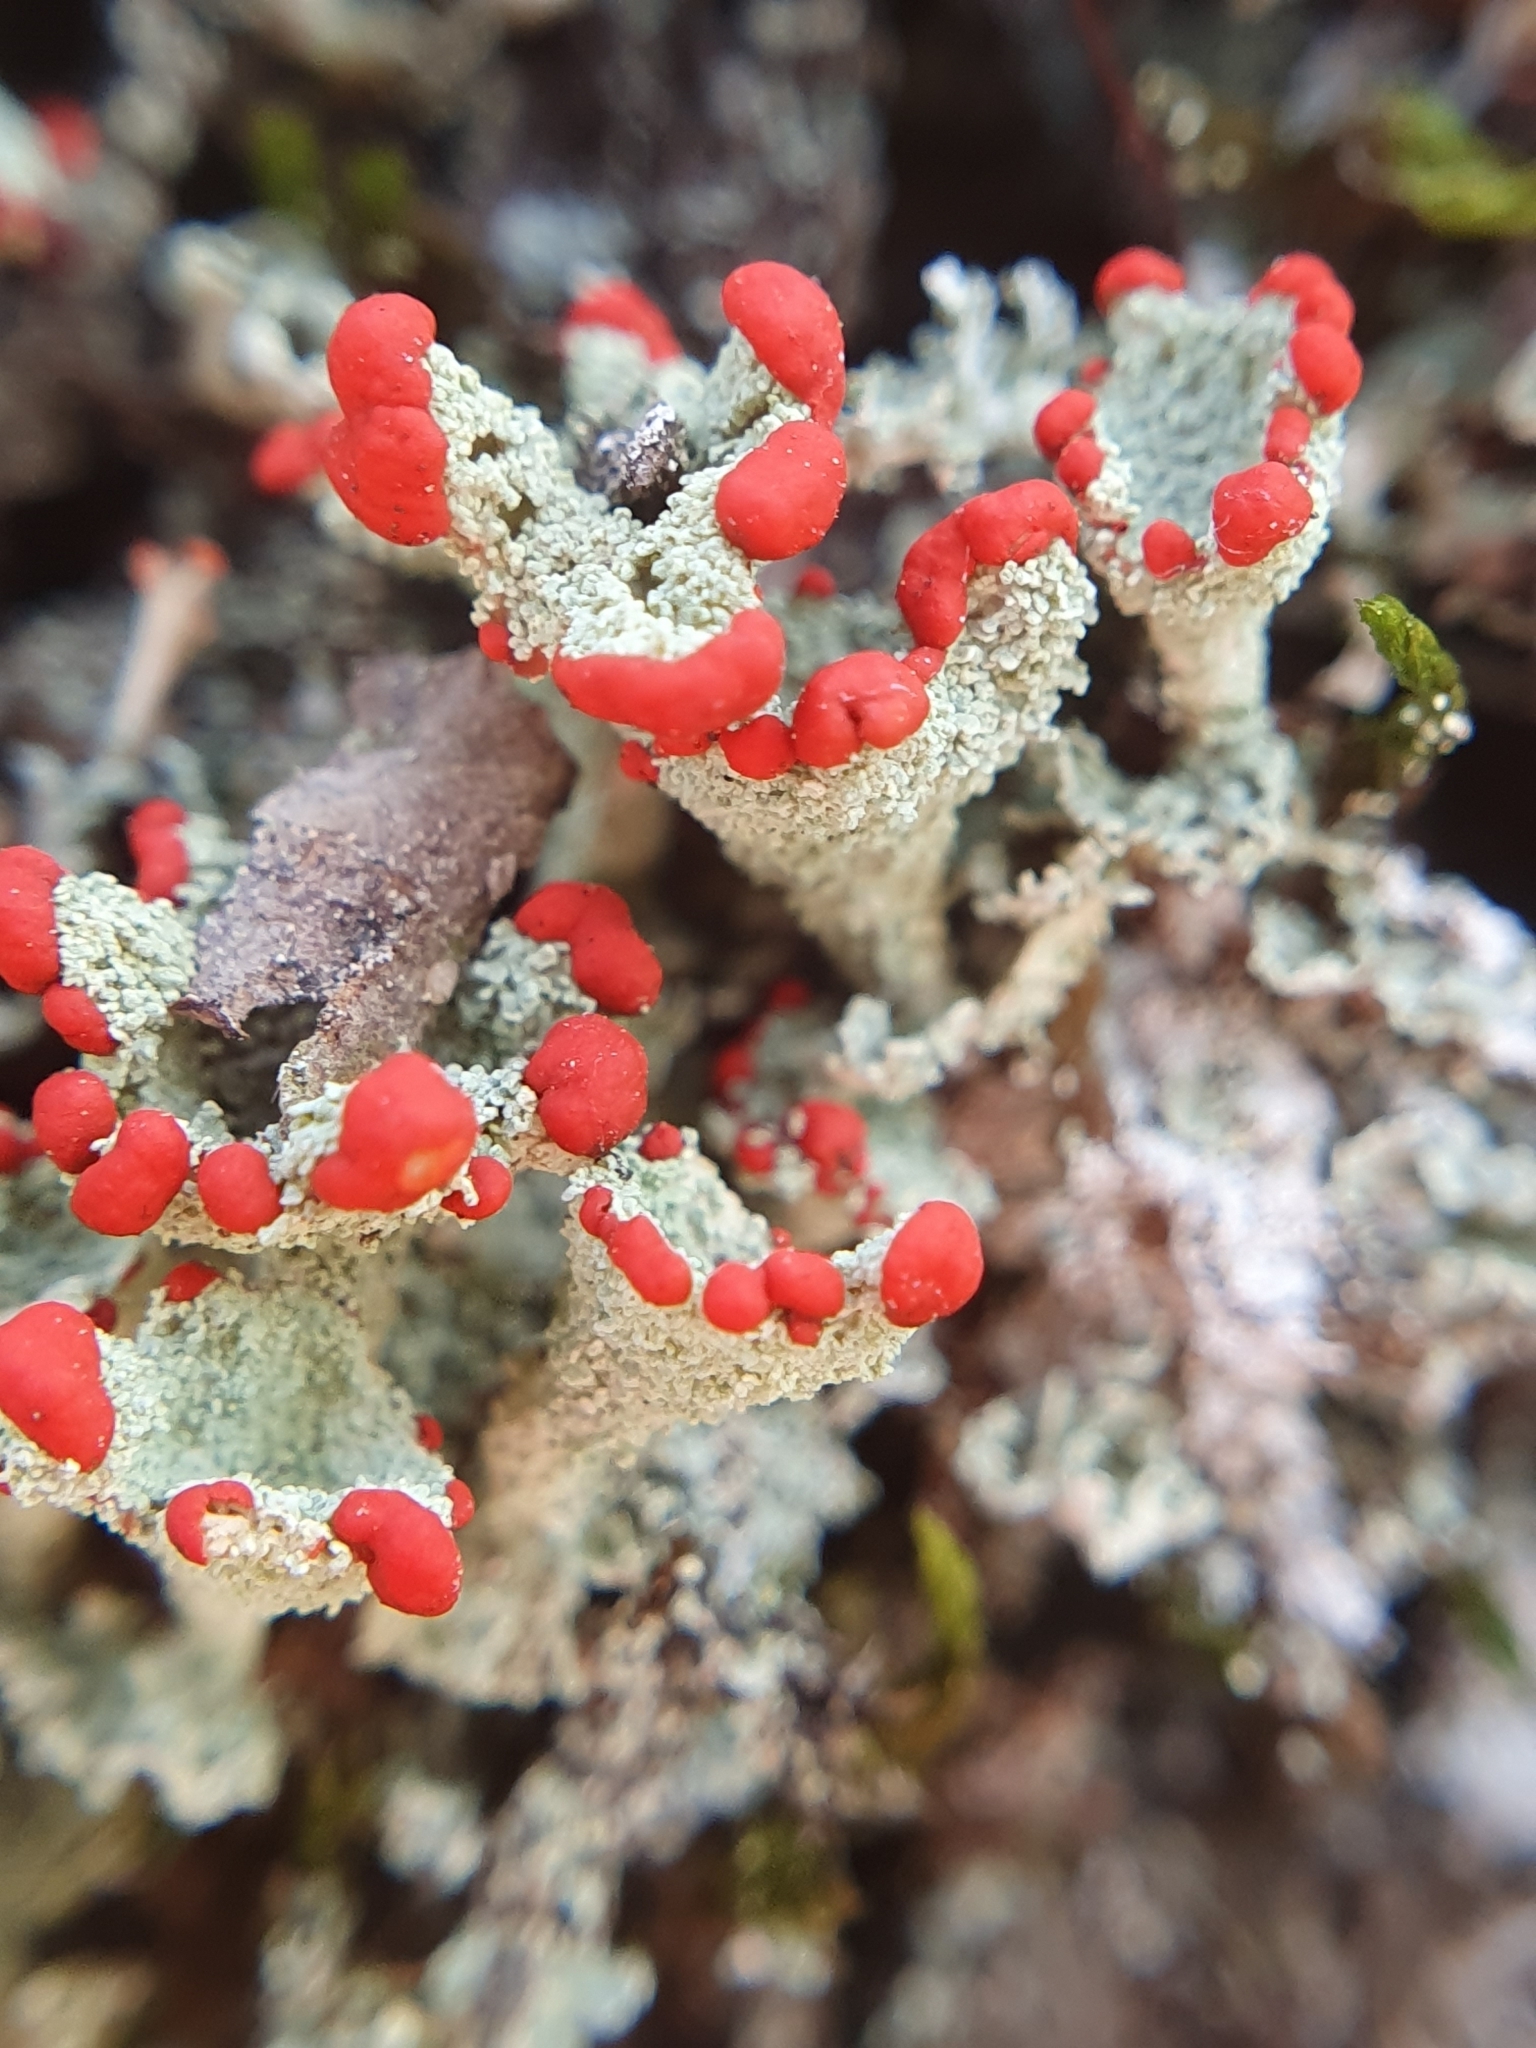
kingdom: Fungi
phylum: Ascomycota
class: Lecanoromycetes
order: Lecanorales
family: Cladoniaceae
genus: Cladonia
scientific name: Cladonia
